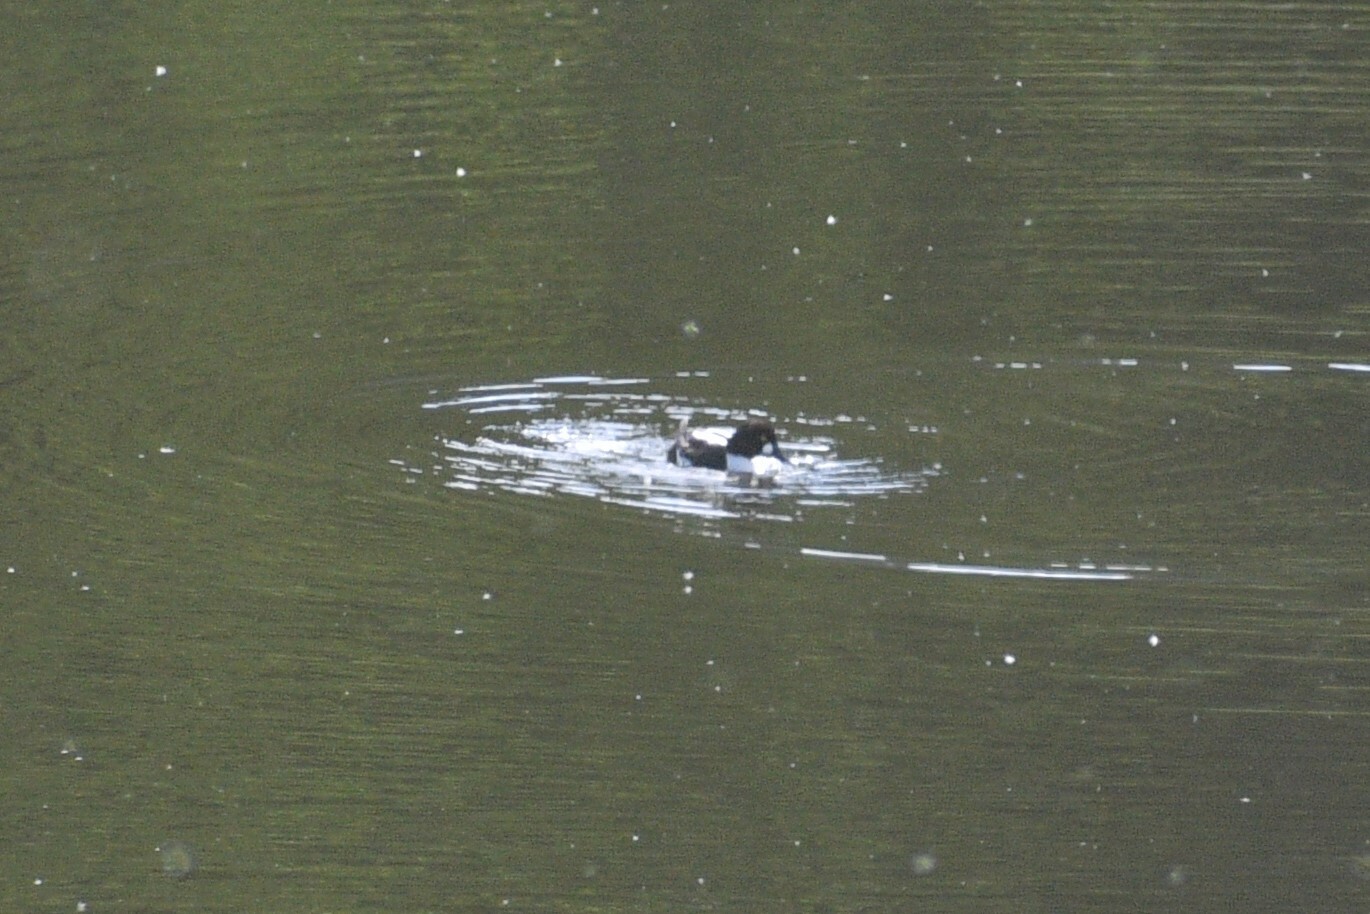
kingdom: Animalia
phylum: Chordata
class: Aves
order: Anseriformes
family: Anatidae
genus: Bucephala
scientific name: Bucephala clangula
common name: Common goldeneye
